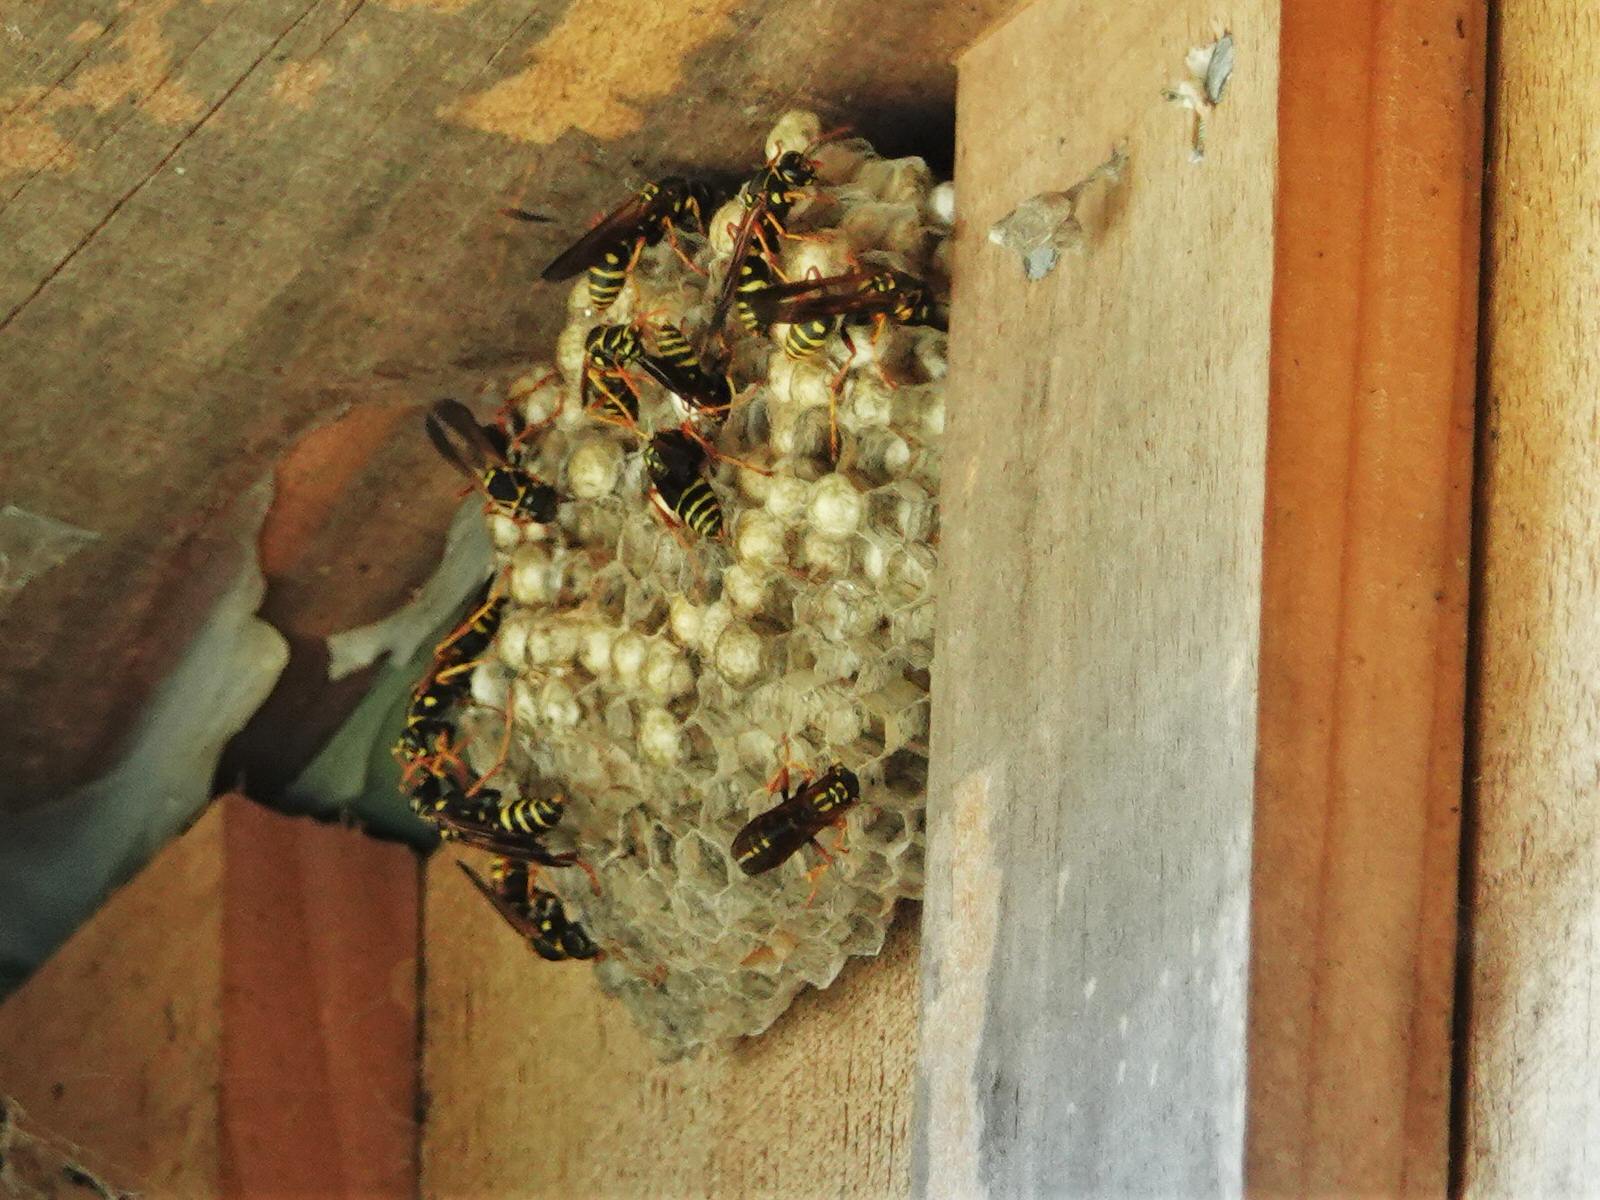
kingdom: Animalia
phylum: Arthropoda
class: Insecta
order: Hymenoptera
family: Eumenidae
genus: Polistes
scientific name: Polistes chinensis
